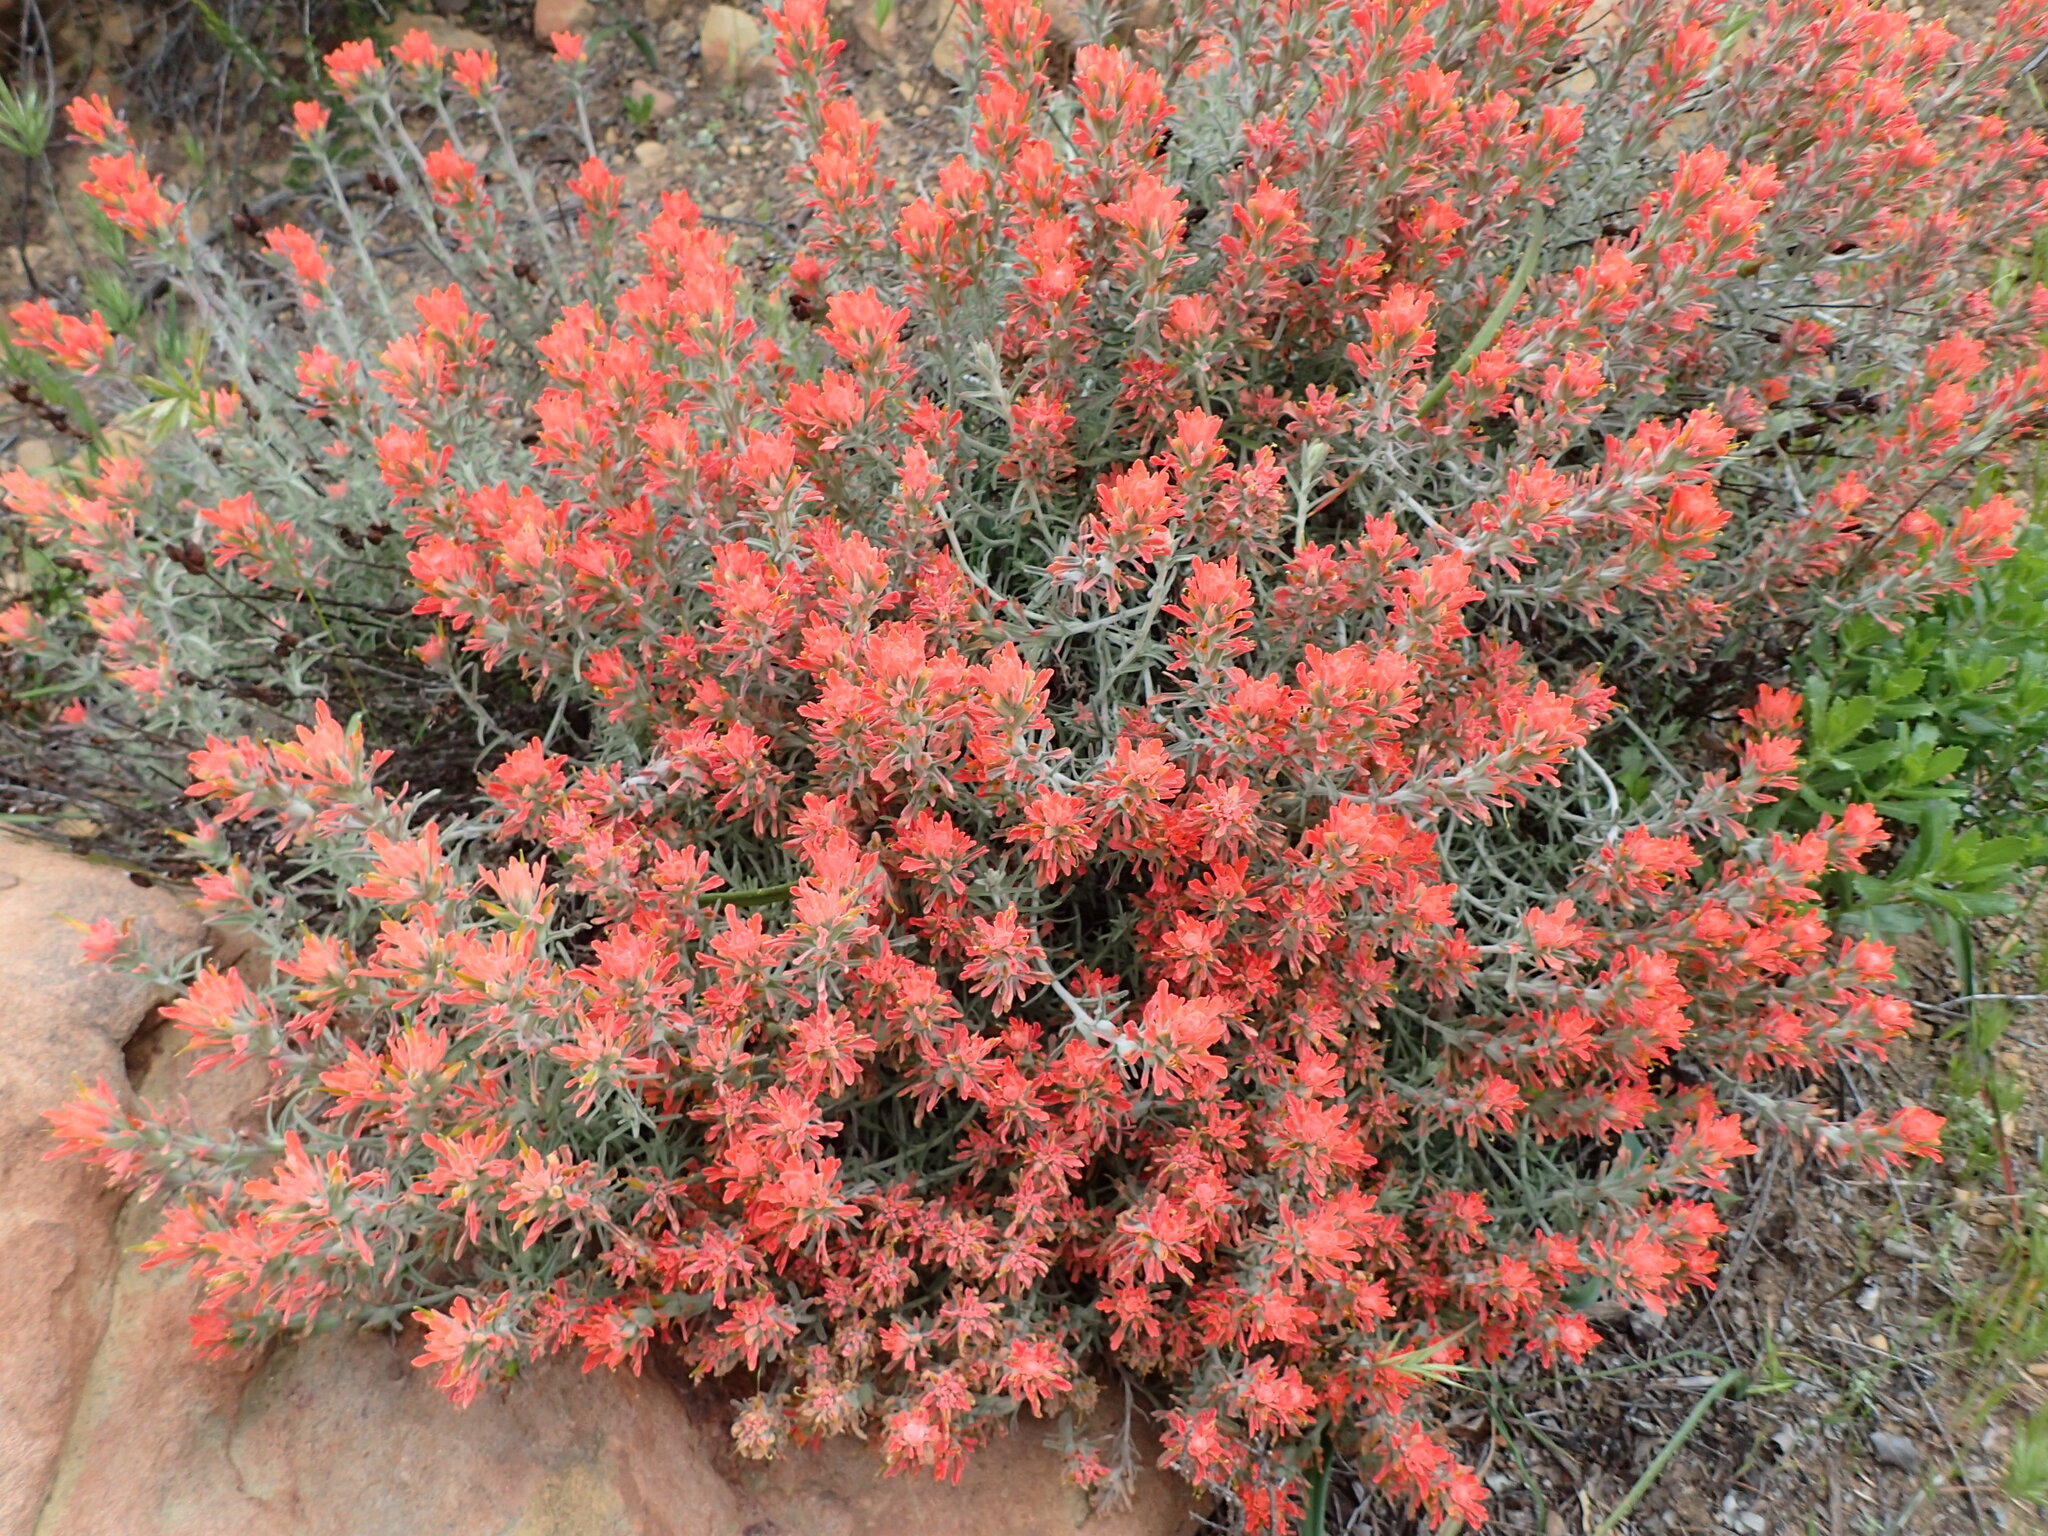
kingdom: Plantae
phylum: Tracheophyta
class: Magnoliopsida
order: Lamiales
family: Orobanchaceae
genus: Castilleja
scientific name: Castilleja foliolosa
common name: Woolly indian paintbrush
